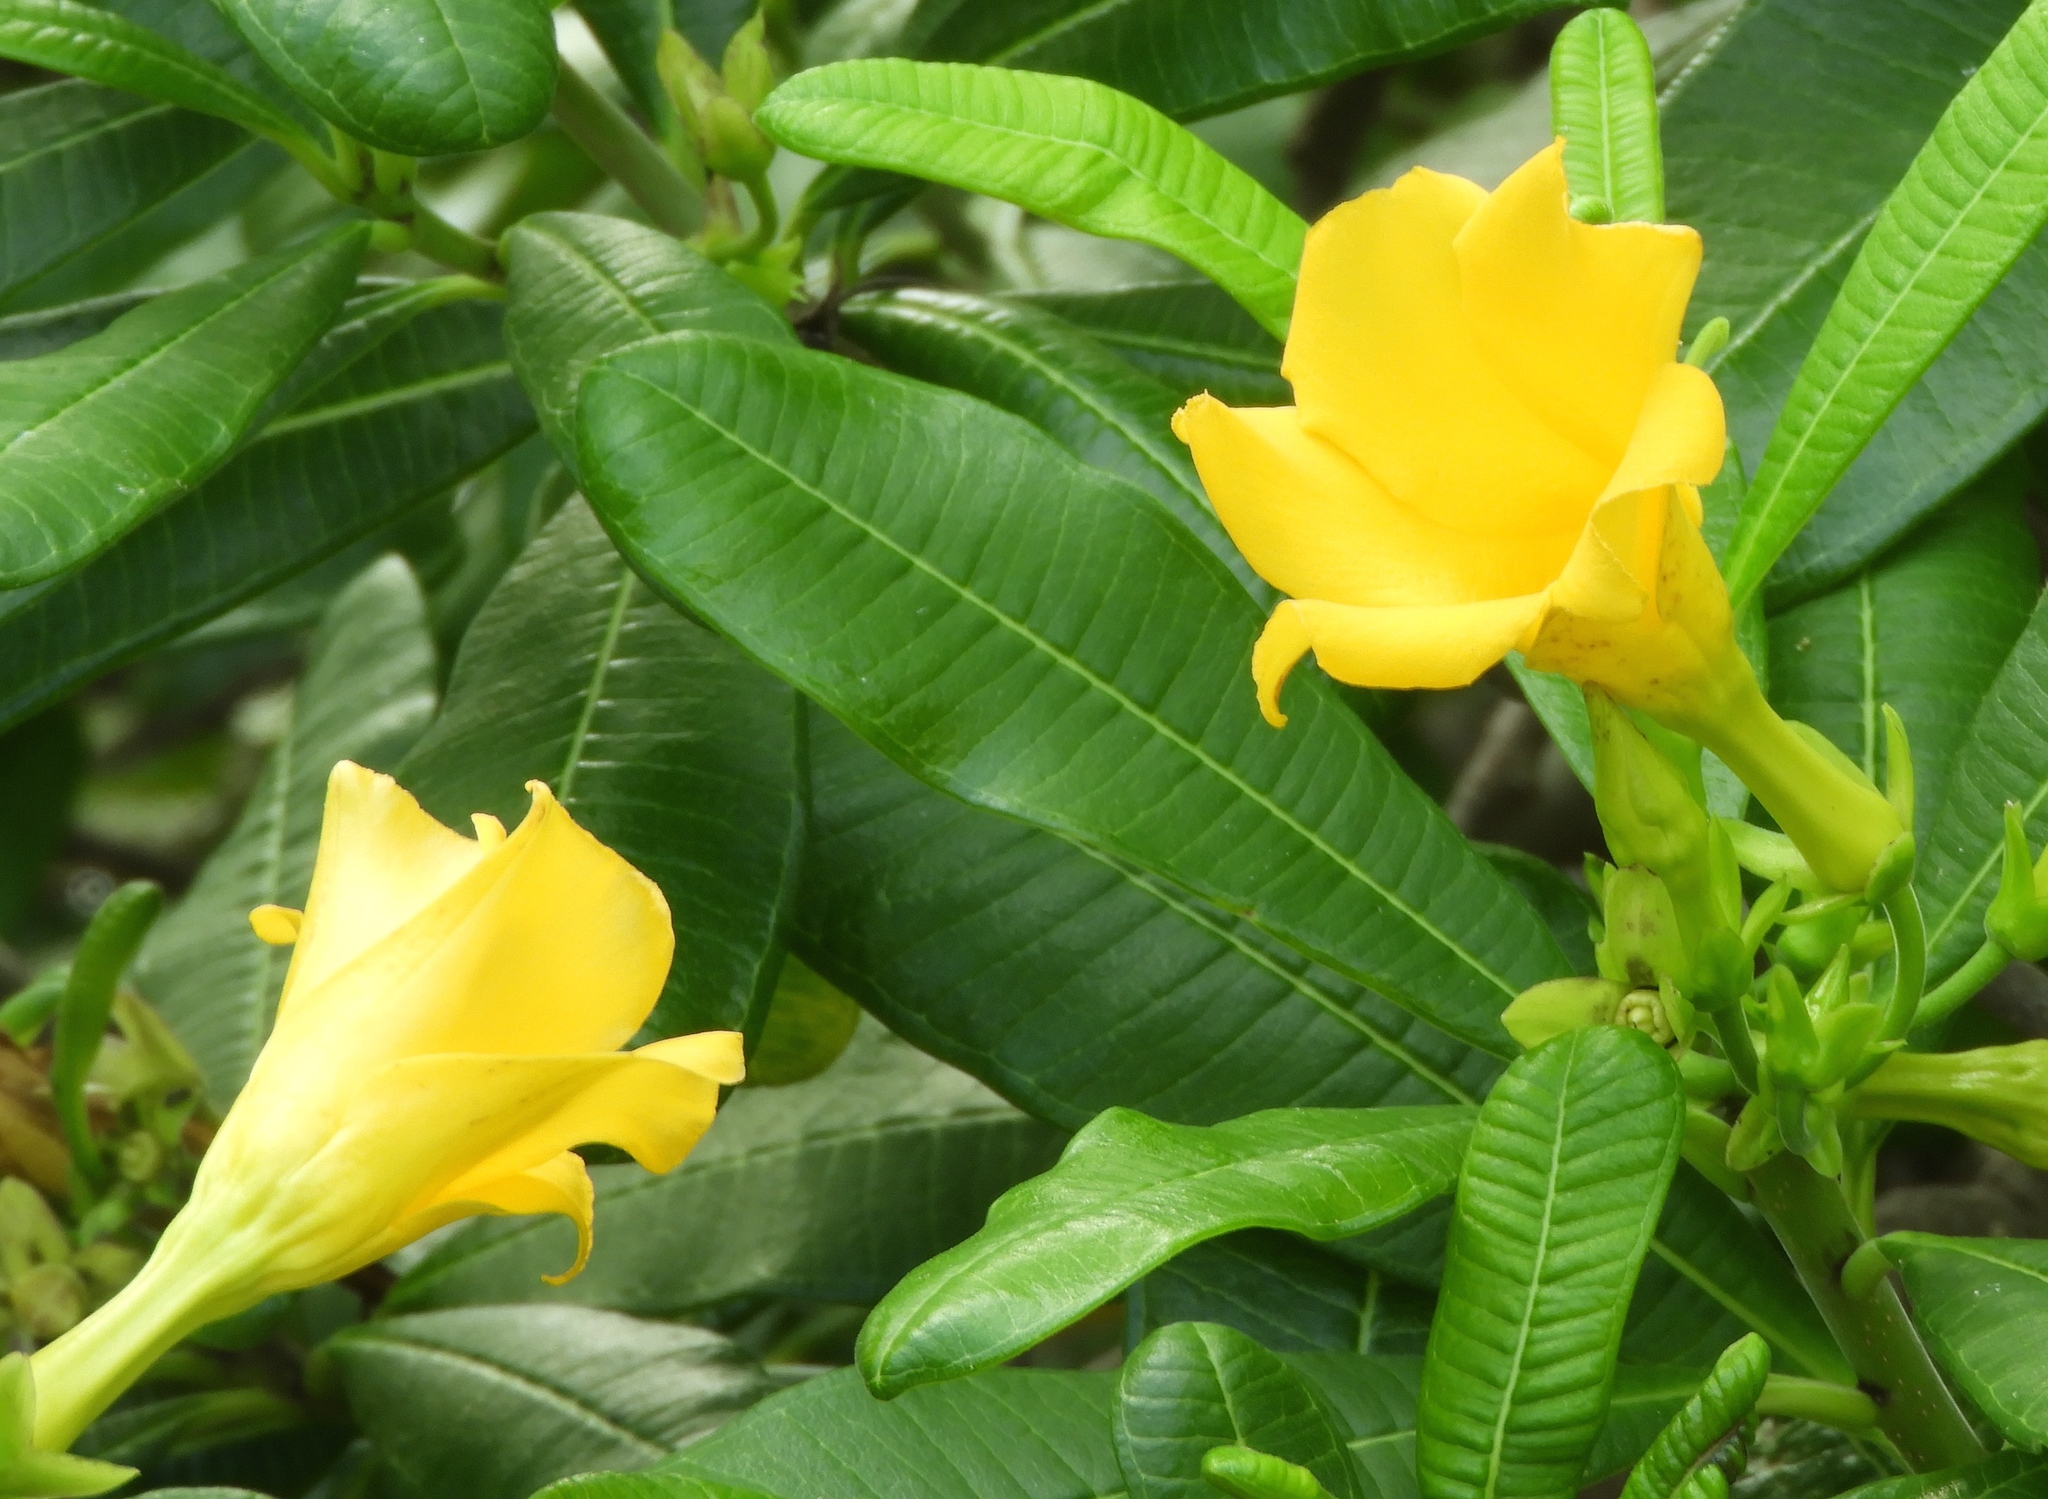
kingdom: Plantae
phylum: Tracheophyta
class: Magnoliopsida
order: Gentianales
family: Apocynaceae
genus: Cascabela
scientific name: Cascabela ovata
